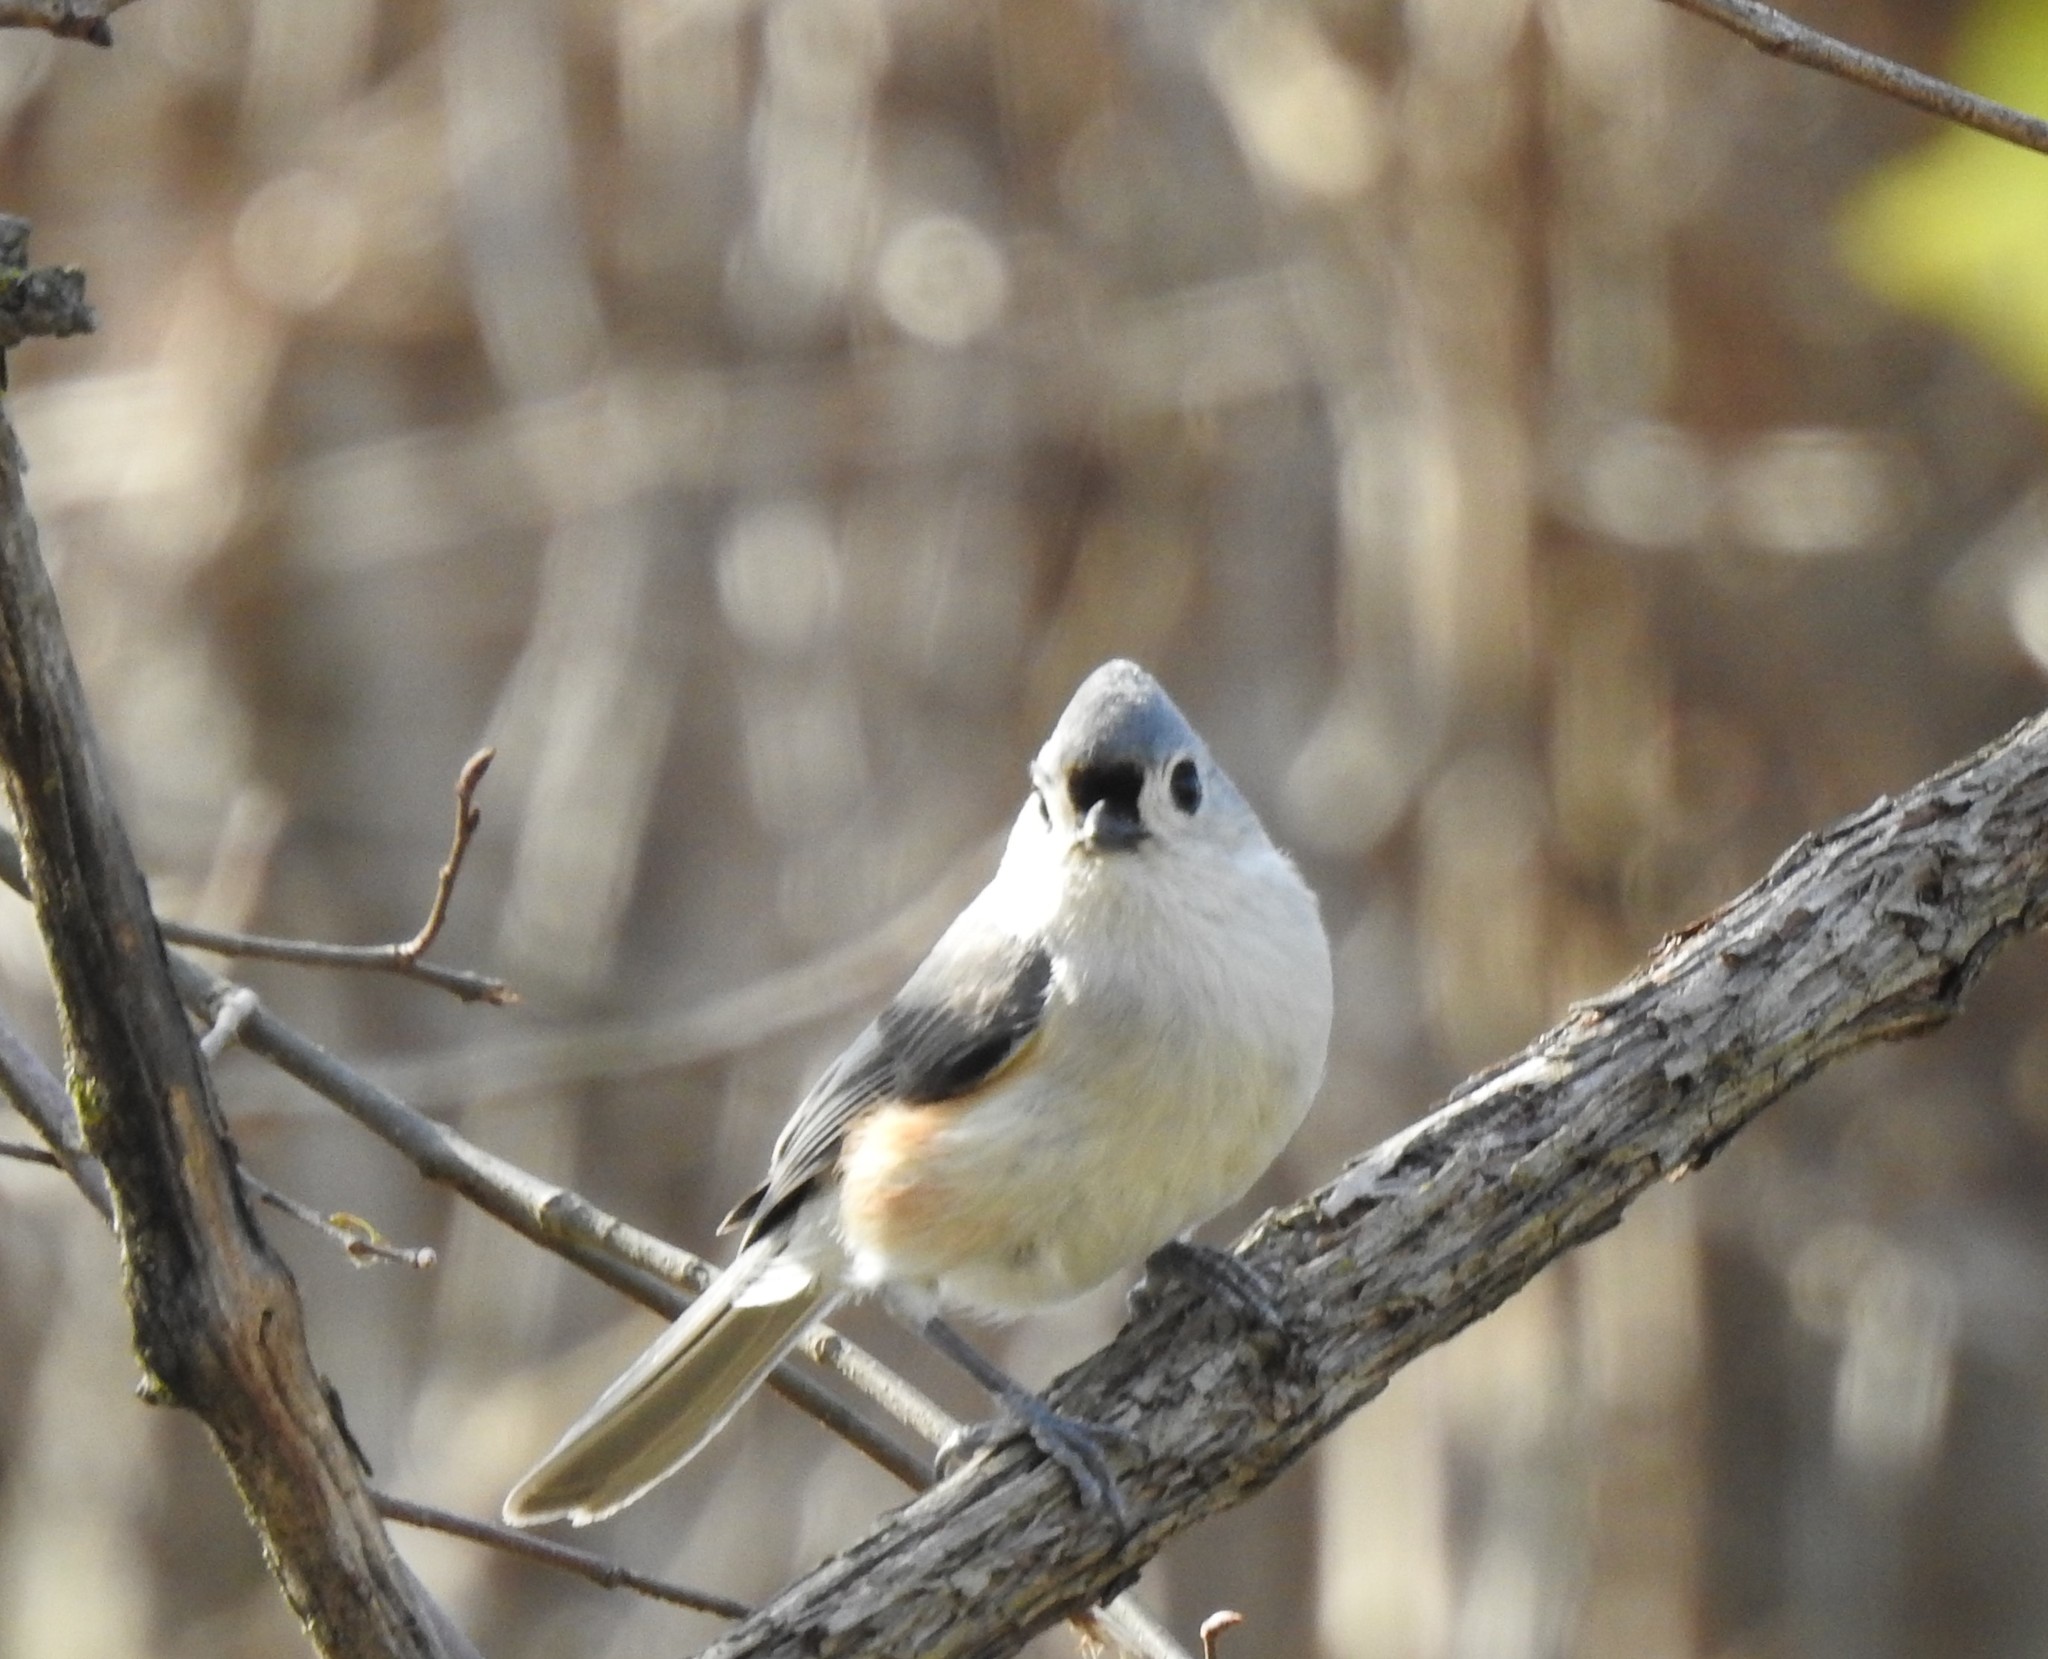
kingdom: Animalia
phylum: Chordata
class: Aves
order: Passeriformes
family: Paridae
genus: Baeolophus
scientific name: Baeolophus bicolor
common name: Tufted titmouse
